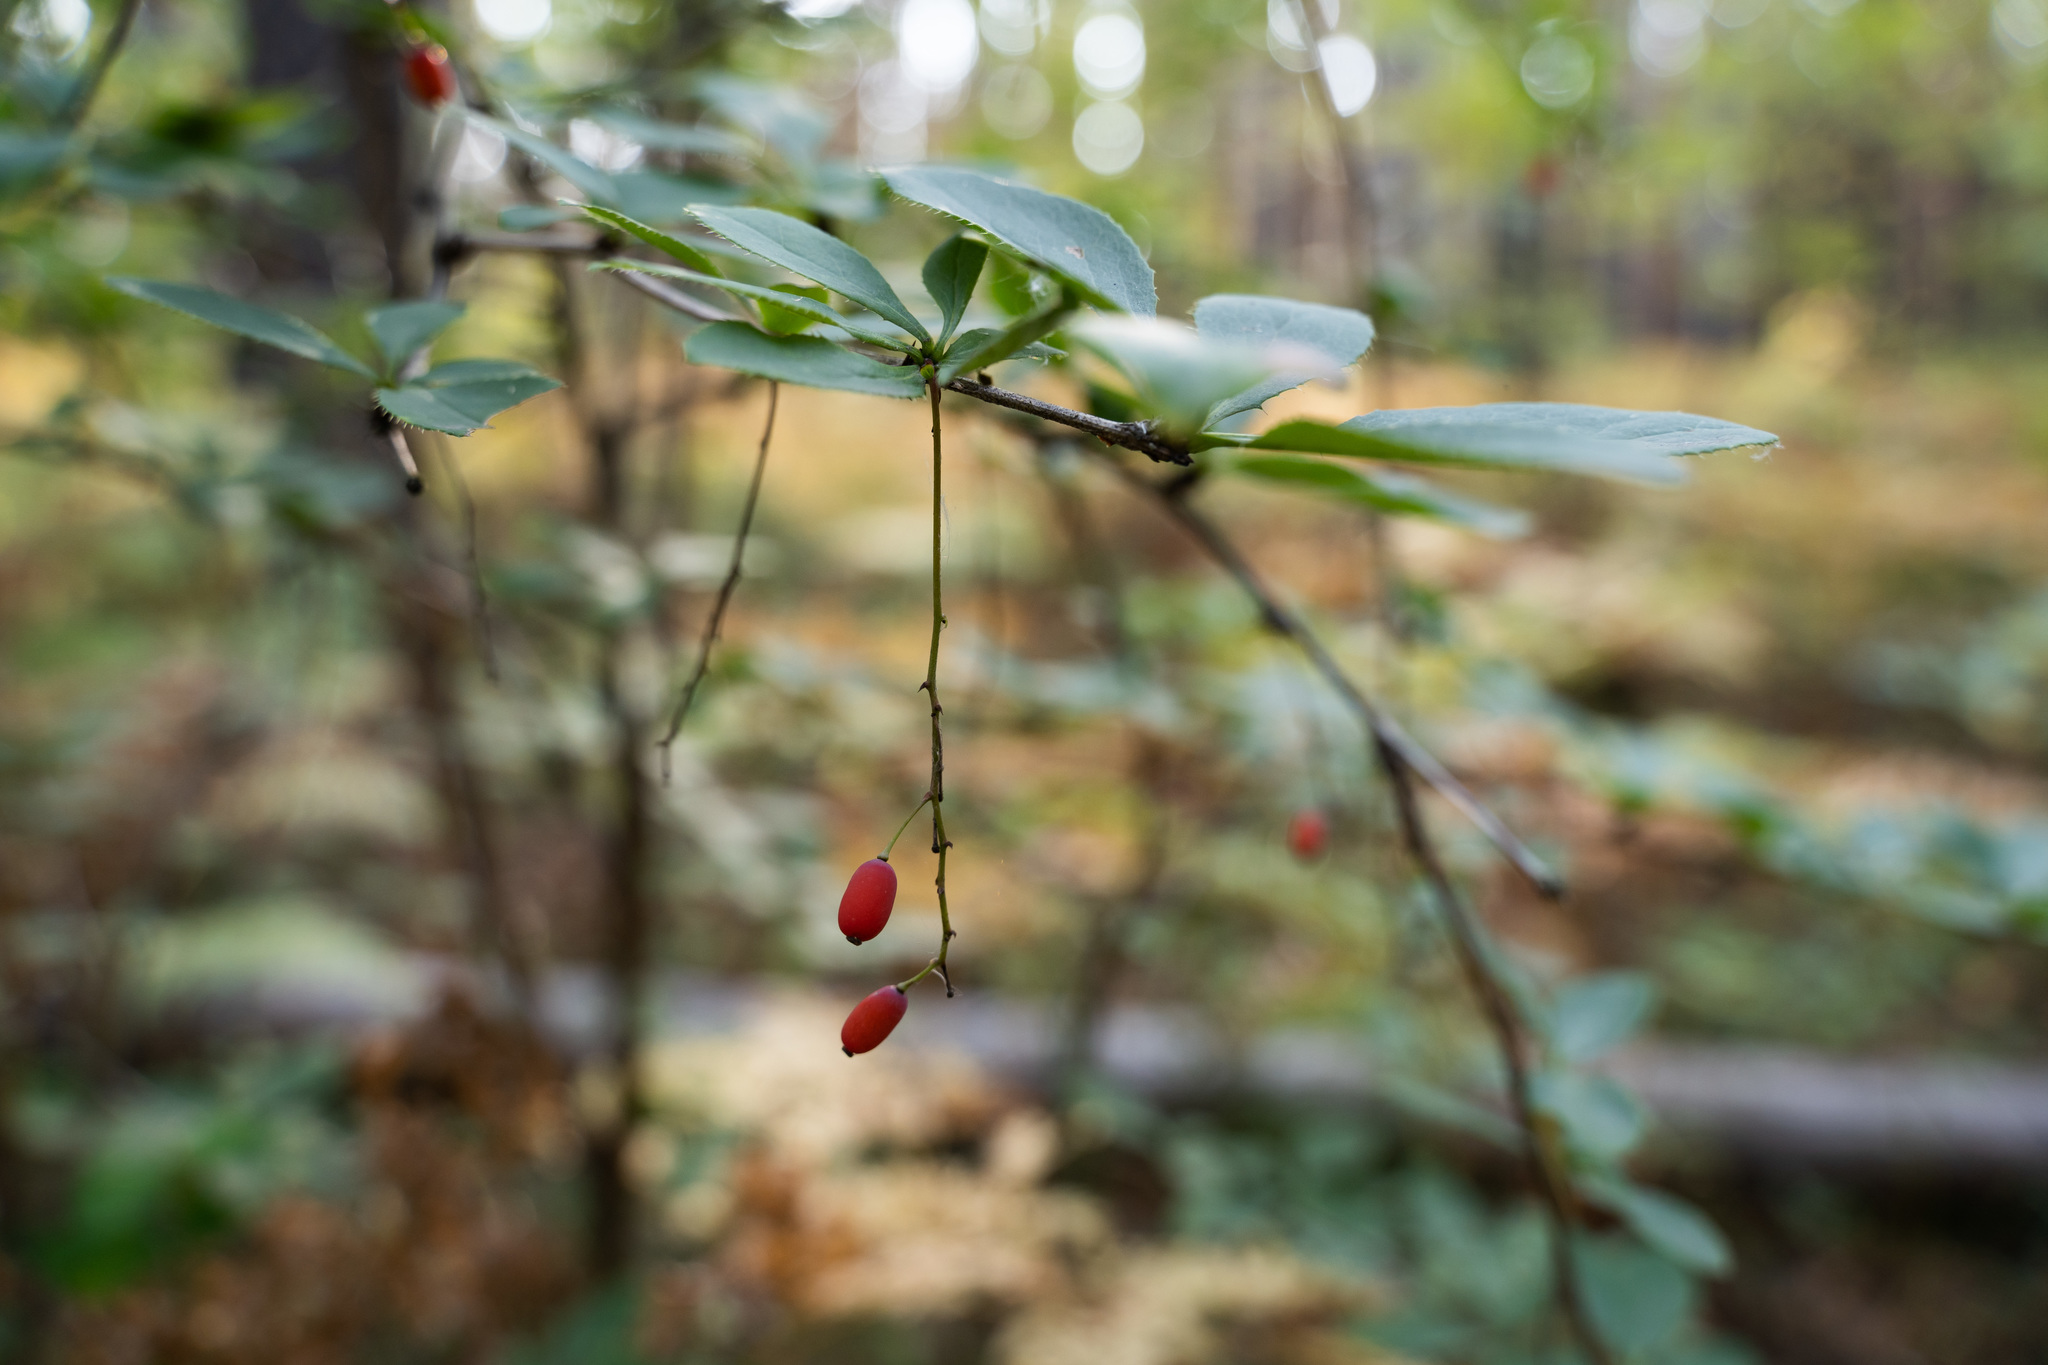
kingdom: Plantae
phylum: Tracheophyta
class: Magnoliopsida
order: Ranunculales
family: Berberidaceae
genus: Berberis
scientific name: Berberis vulgaris
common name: Barberry
